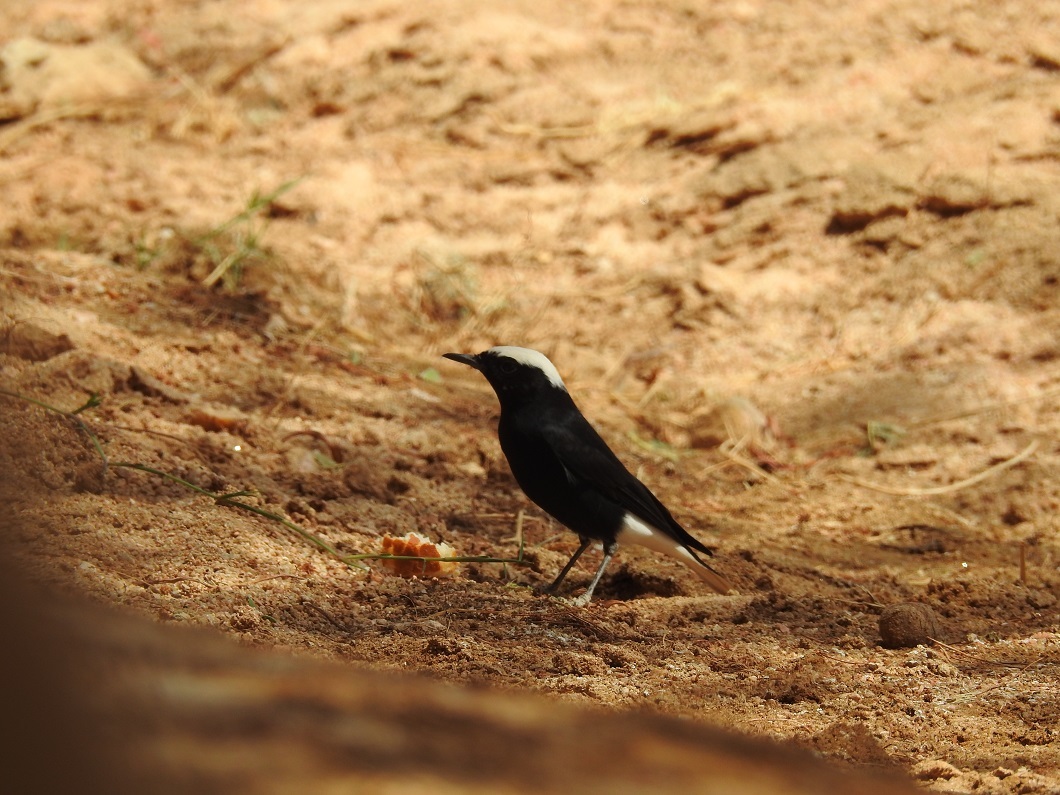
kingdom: Animalia
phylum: Chordata
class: Aves
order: Passeriformes
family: Muscicapidae
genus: Oenanthe
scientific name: Oenanthe leucopyga
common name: White-crowned wheatear
